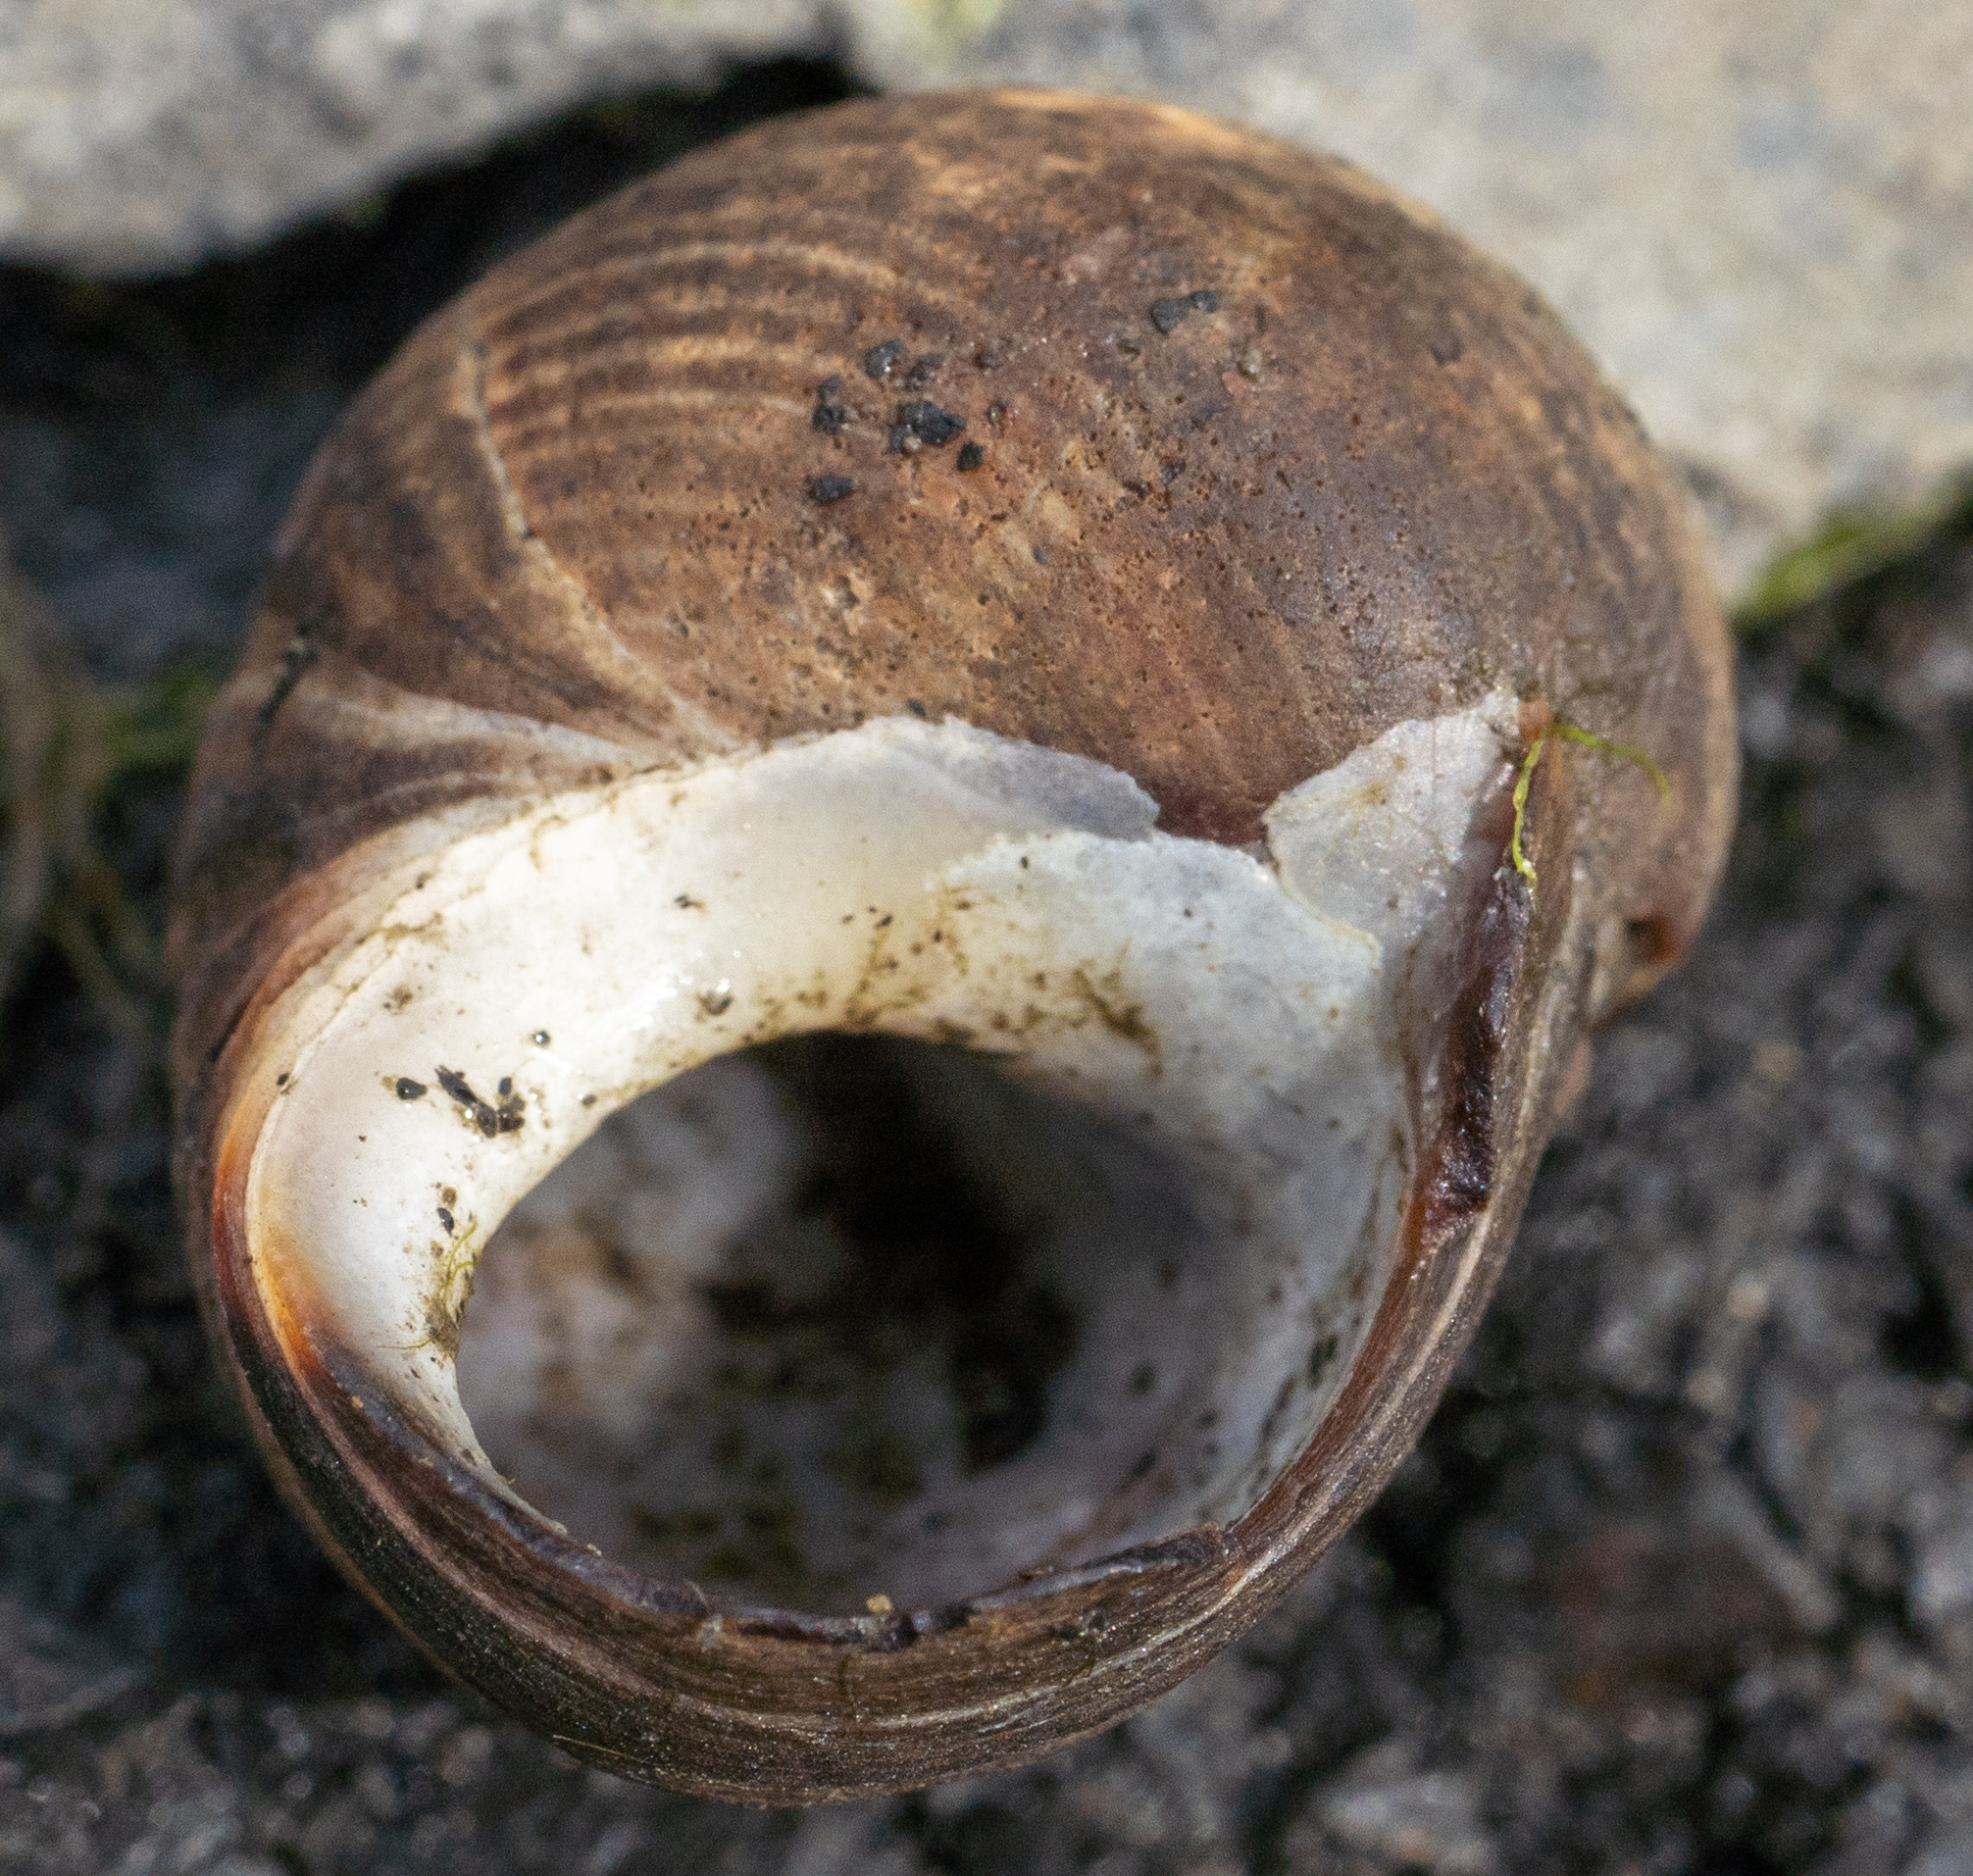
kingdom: Animalia
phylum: Mollusca
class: Gastropoda
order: Littorinimorpha
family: Littorinidae
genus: Littorina
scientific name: Littorina littorea
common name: Common periwinkle
